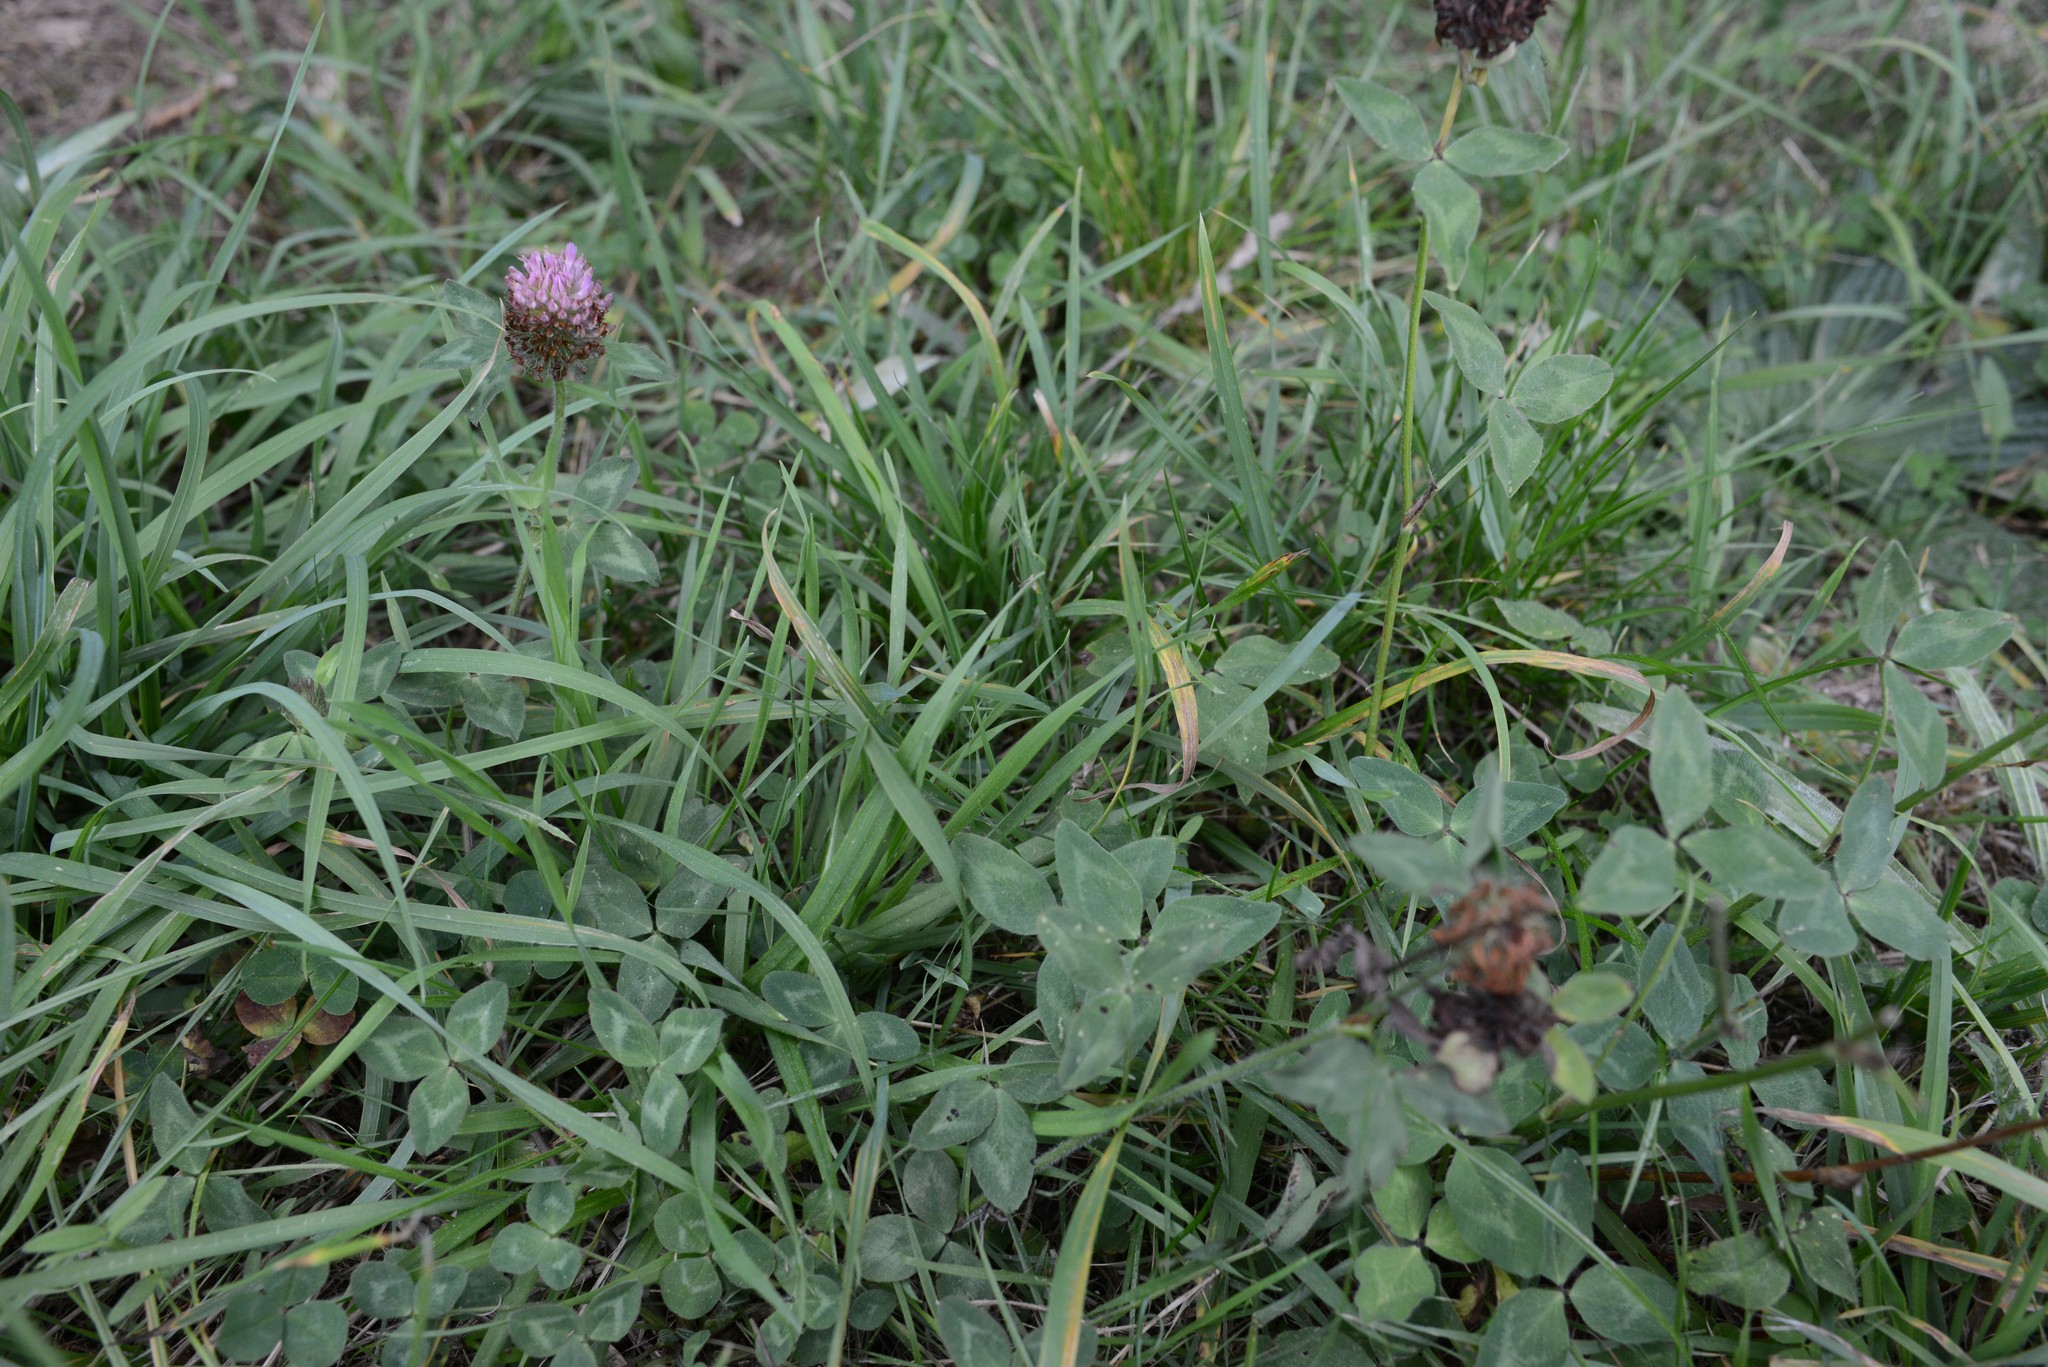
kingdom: Plantae
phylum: Tracheophyta
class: Magnoliopsida
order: Fabales
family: Fabaceae
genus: Trifolium
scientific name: Trifolium pratense
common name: Red clover
